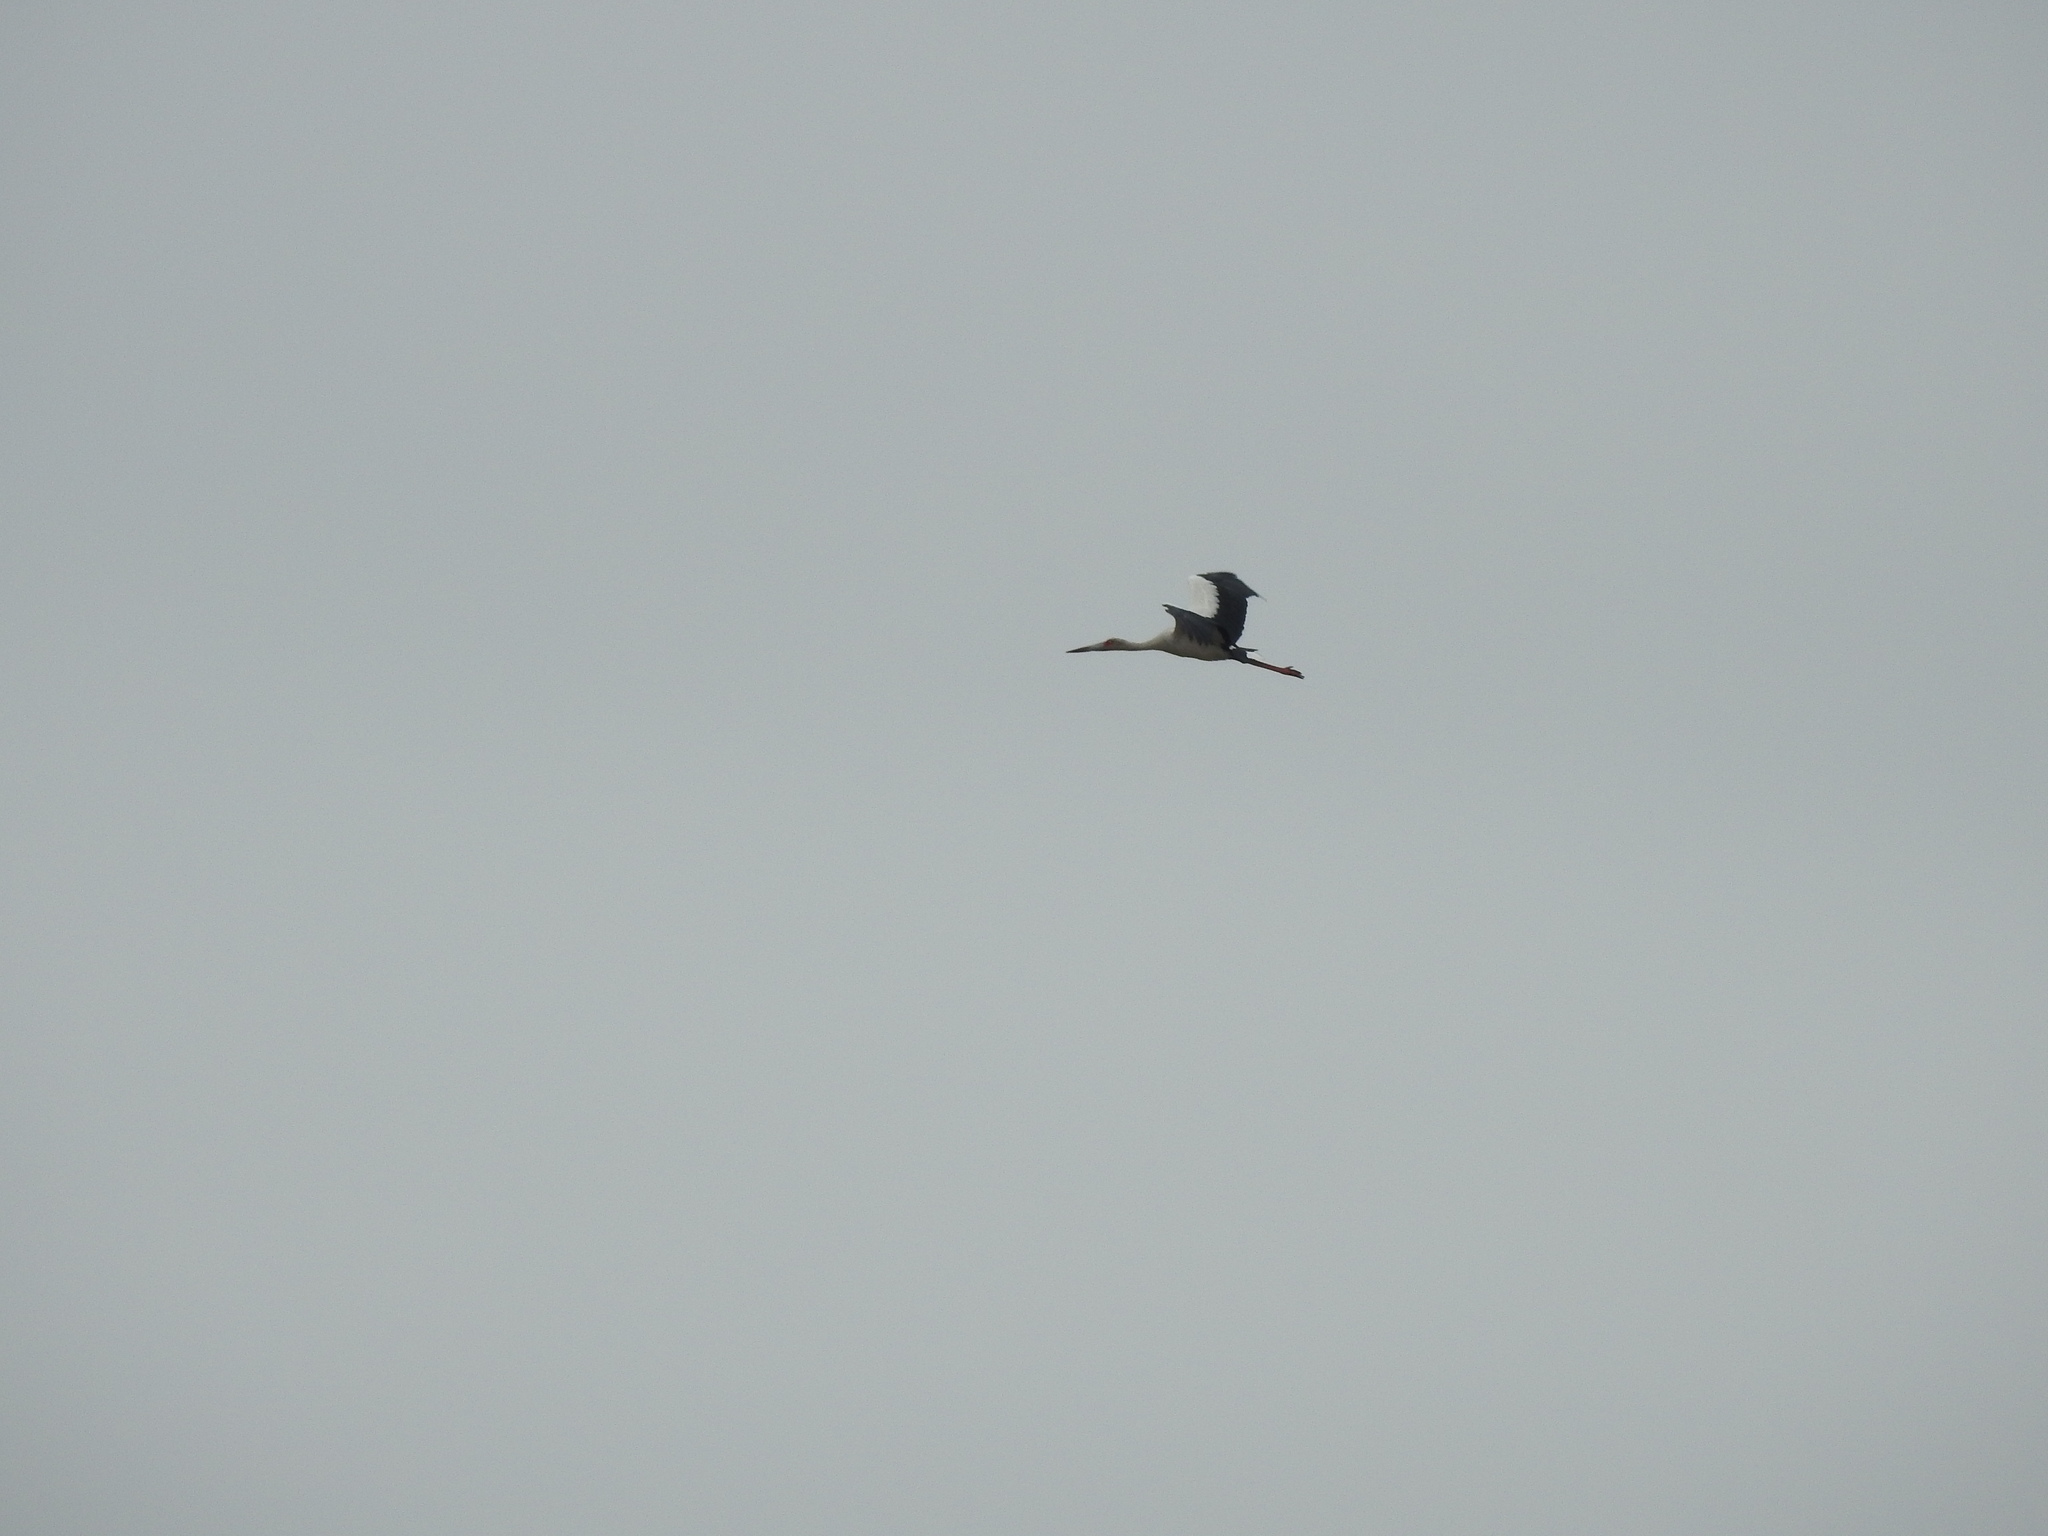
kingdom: Animalia
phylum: Chordata
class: Aves
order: Ciconiiformes
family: Ciconiidae
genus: Ciconia
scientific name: Ciconia maguari
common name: Maguari stork
